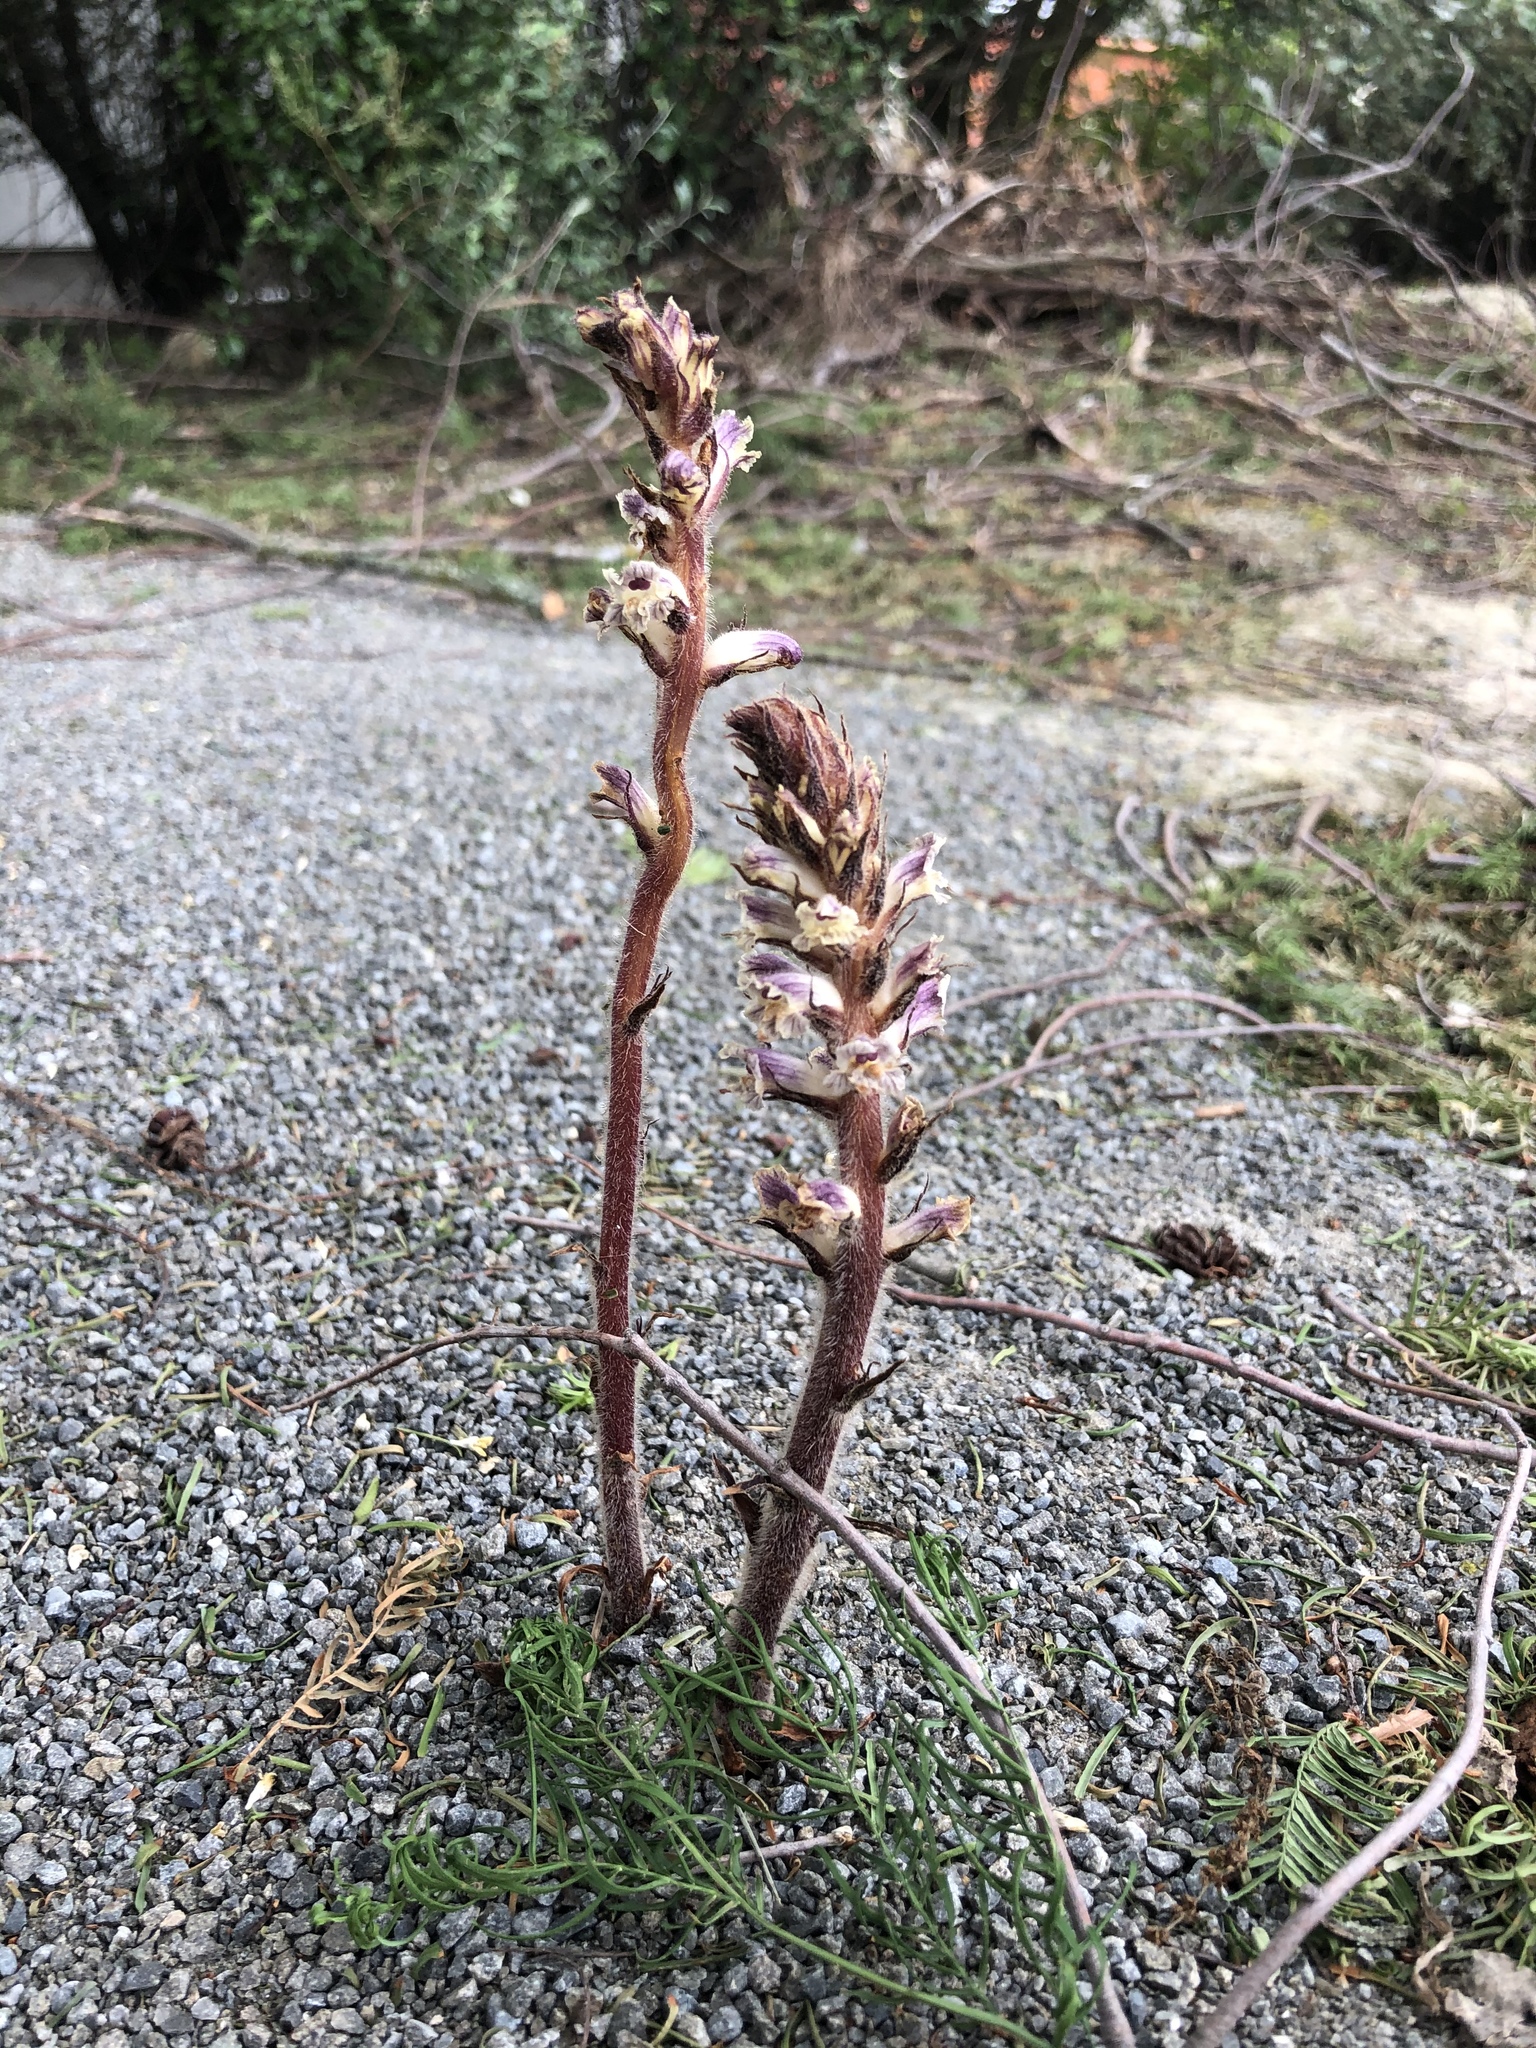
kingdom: Plantae
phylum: Tracheophyta
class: Magnoliopsida
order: Lamiales
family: Orobanchaceae
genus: Orobanche
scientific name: Orobanche minor
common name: Common broomrape
